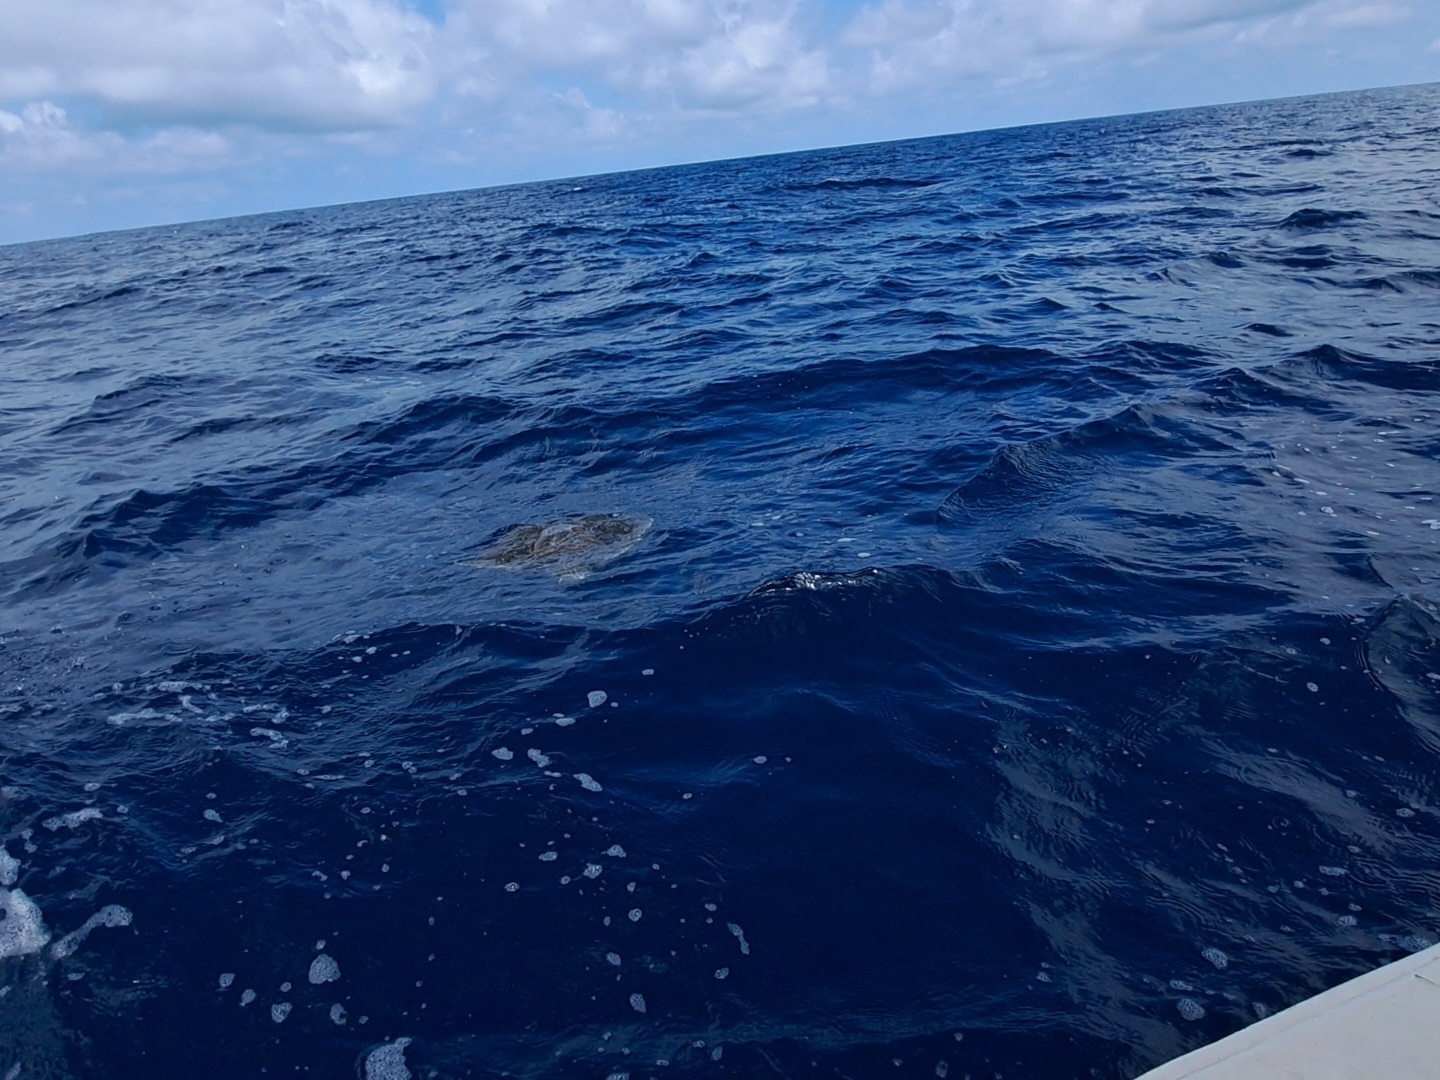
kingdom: Animalia
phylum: Chordata
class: Testudines
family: Cheloniidae
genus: Lepidochelys
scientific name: Lepidochelys olivacea
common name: Olive ridley
